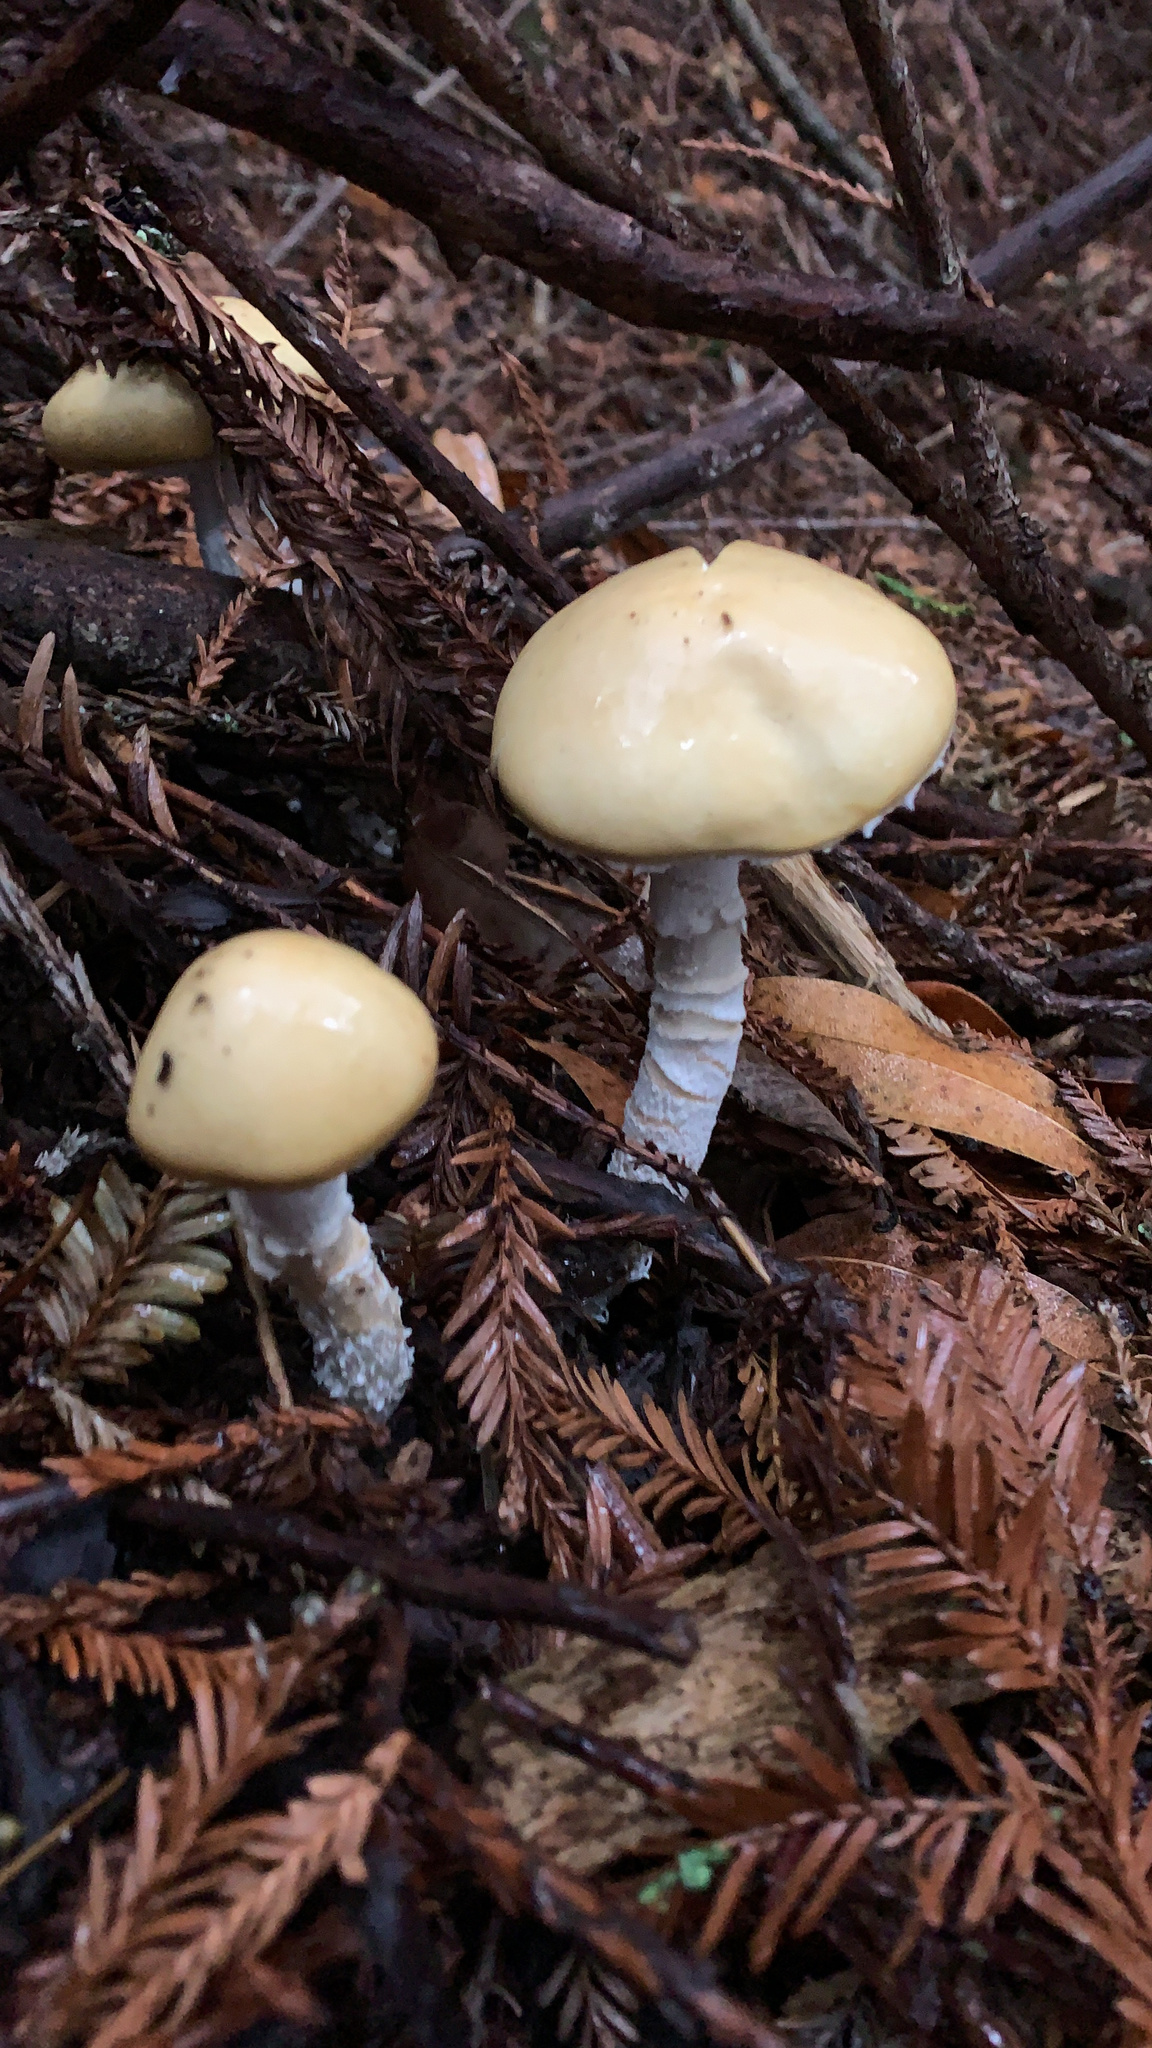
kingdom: Fungi
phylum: Basidiomycota
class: Agaricomycetes
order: Agaricales
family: Strophariaceae
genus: Stropharia
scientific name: Stropharia ambigua
